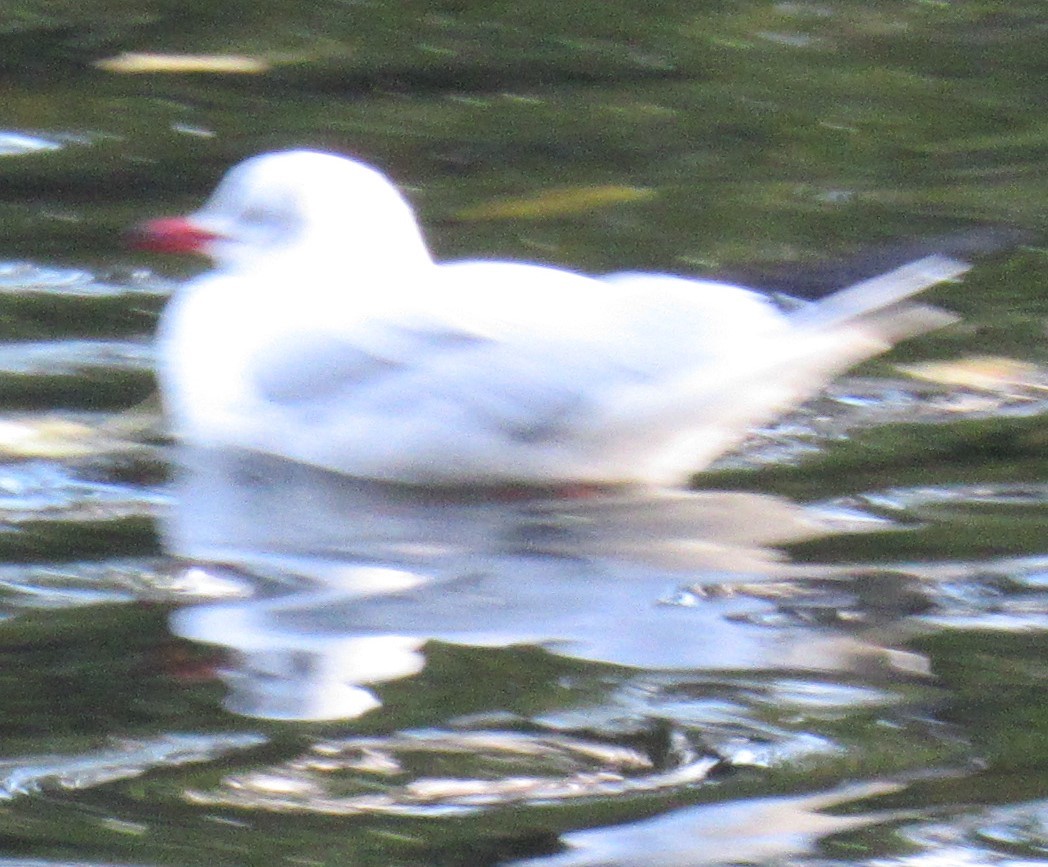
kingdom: Animalia
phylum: Chordata
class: Aves
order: Charadriiformes
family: Laridae
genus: Chroicocephalus
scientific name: Chroicocephalus ridibundus
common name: Black-headed gull
